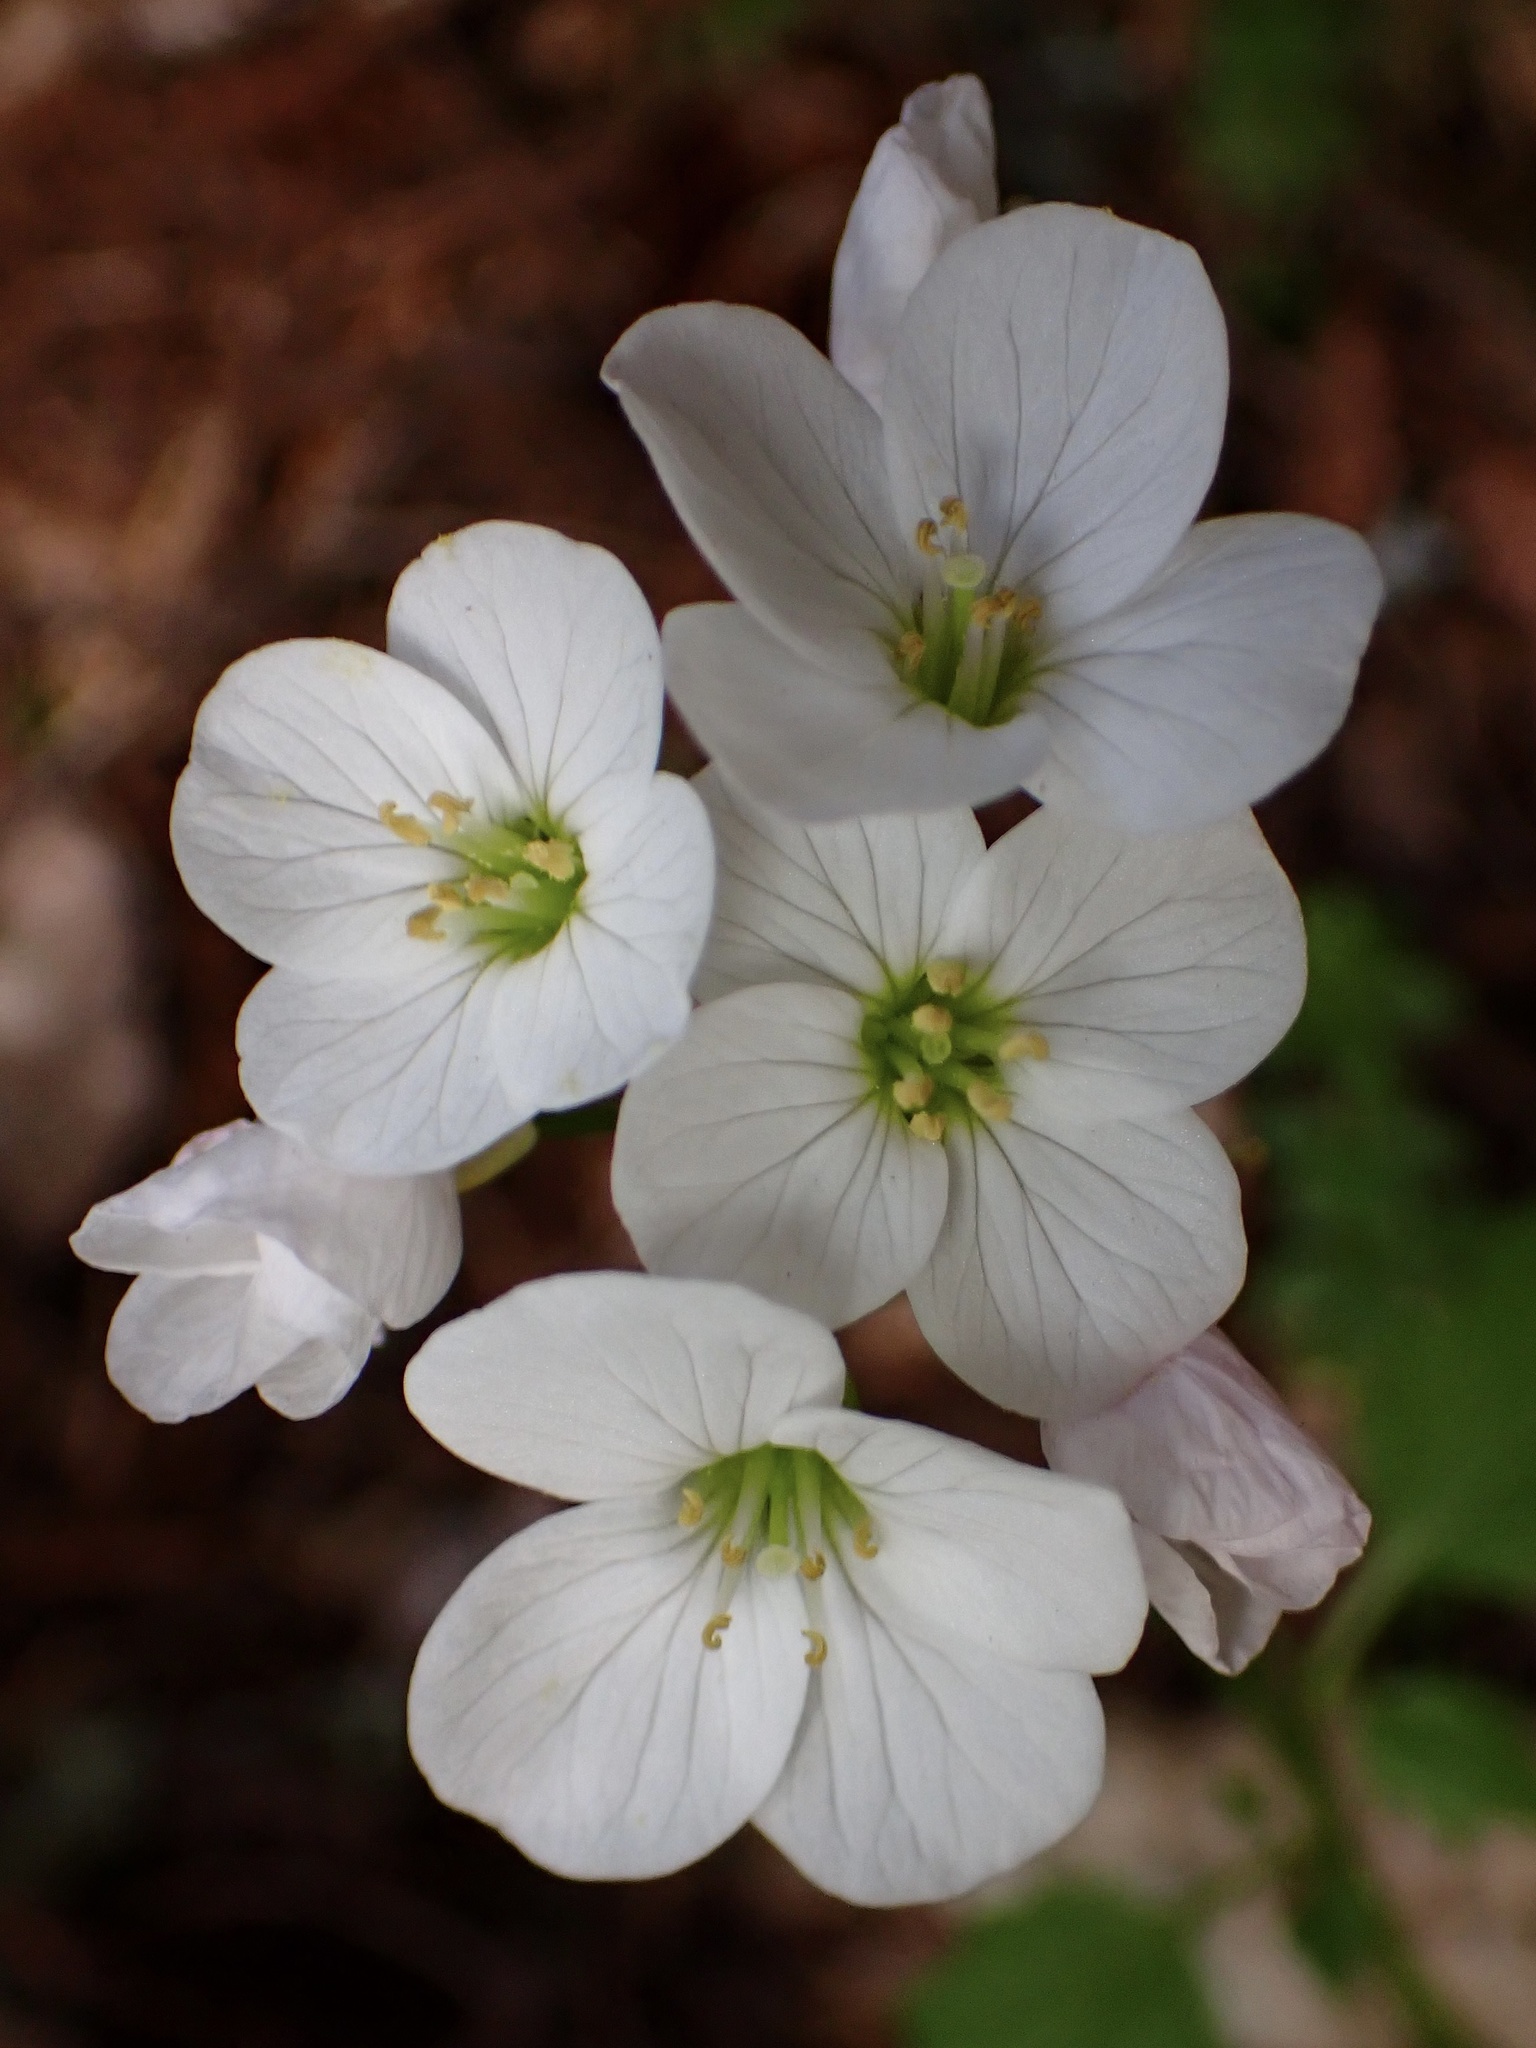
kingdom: Plantae
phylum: Tracheophyta
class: Magnoliopsida
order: Brassicales
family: Brassicaceae
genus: Cardamine
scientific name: Cardamine californica
